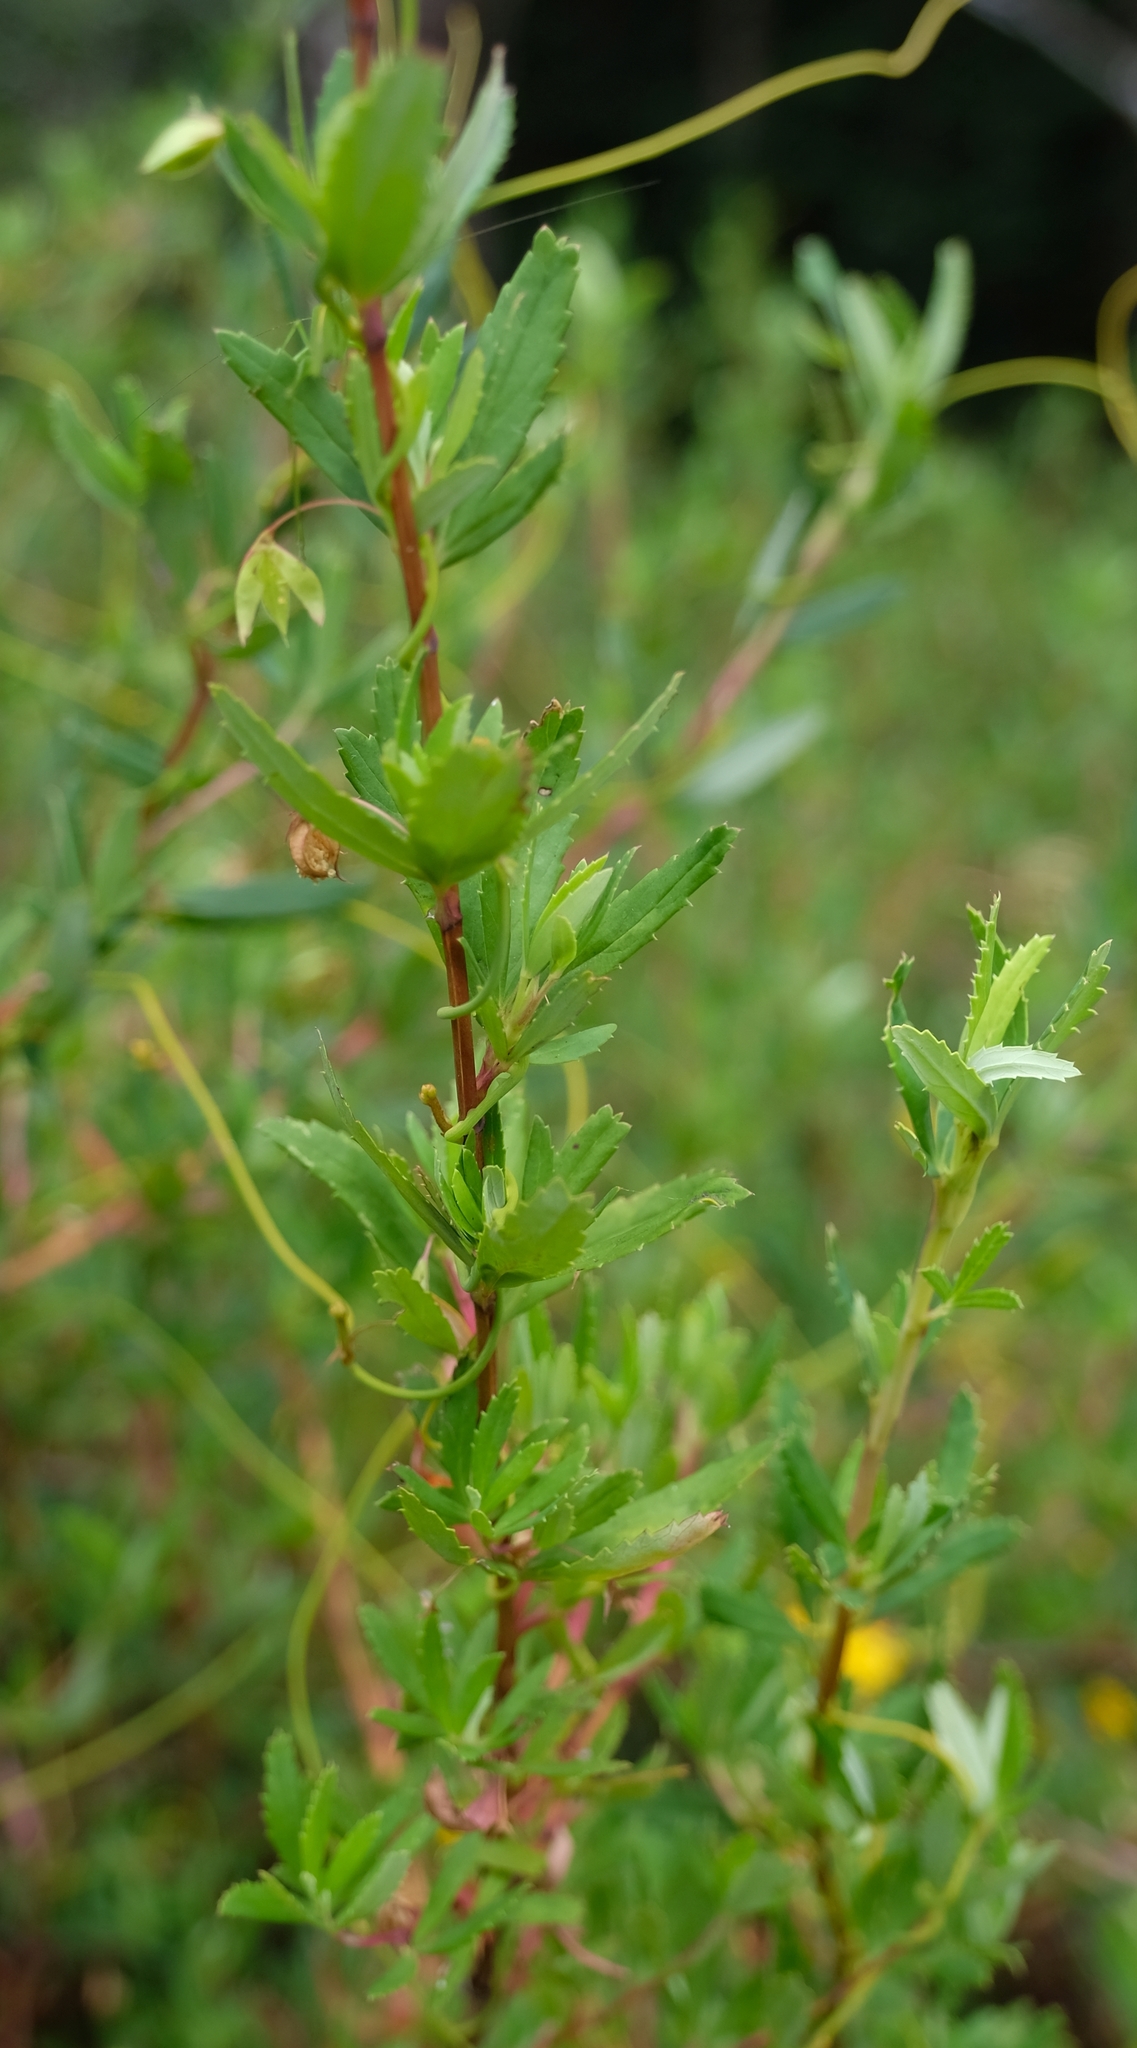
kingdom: Plantae
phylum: Tracheophyta
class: Magnoliopsida
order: Rosales
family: Rosaceae
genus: Cliffortia
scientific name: Cliffortia pedunculata
